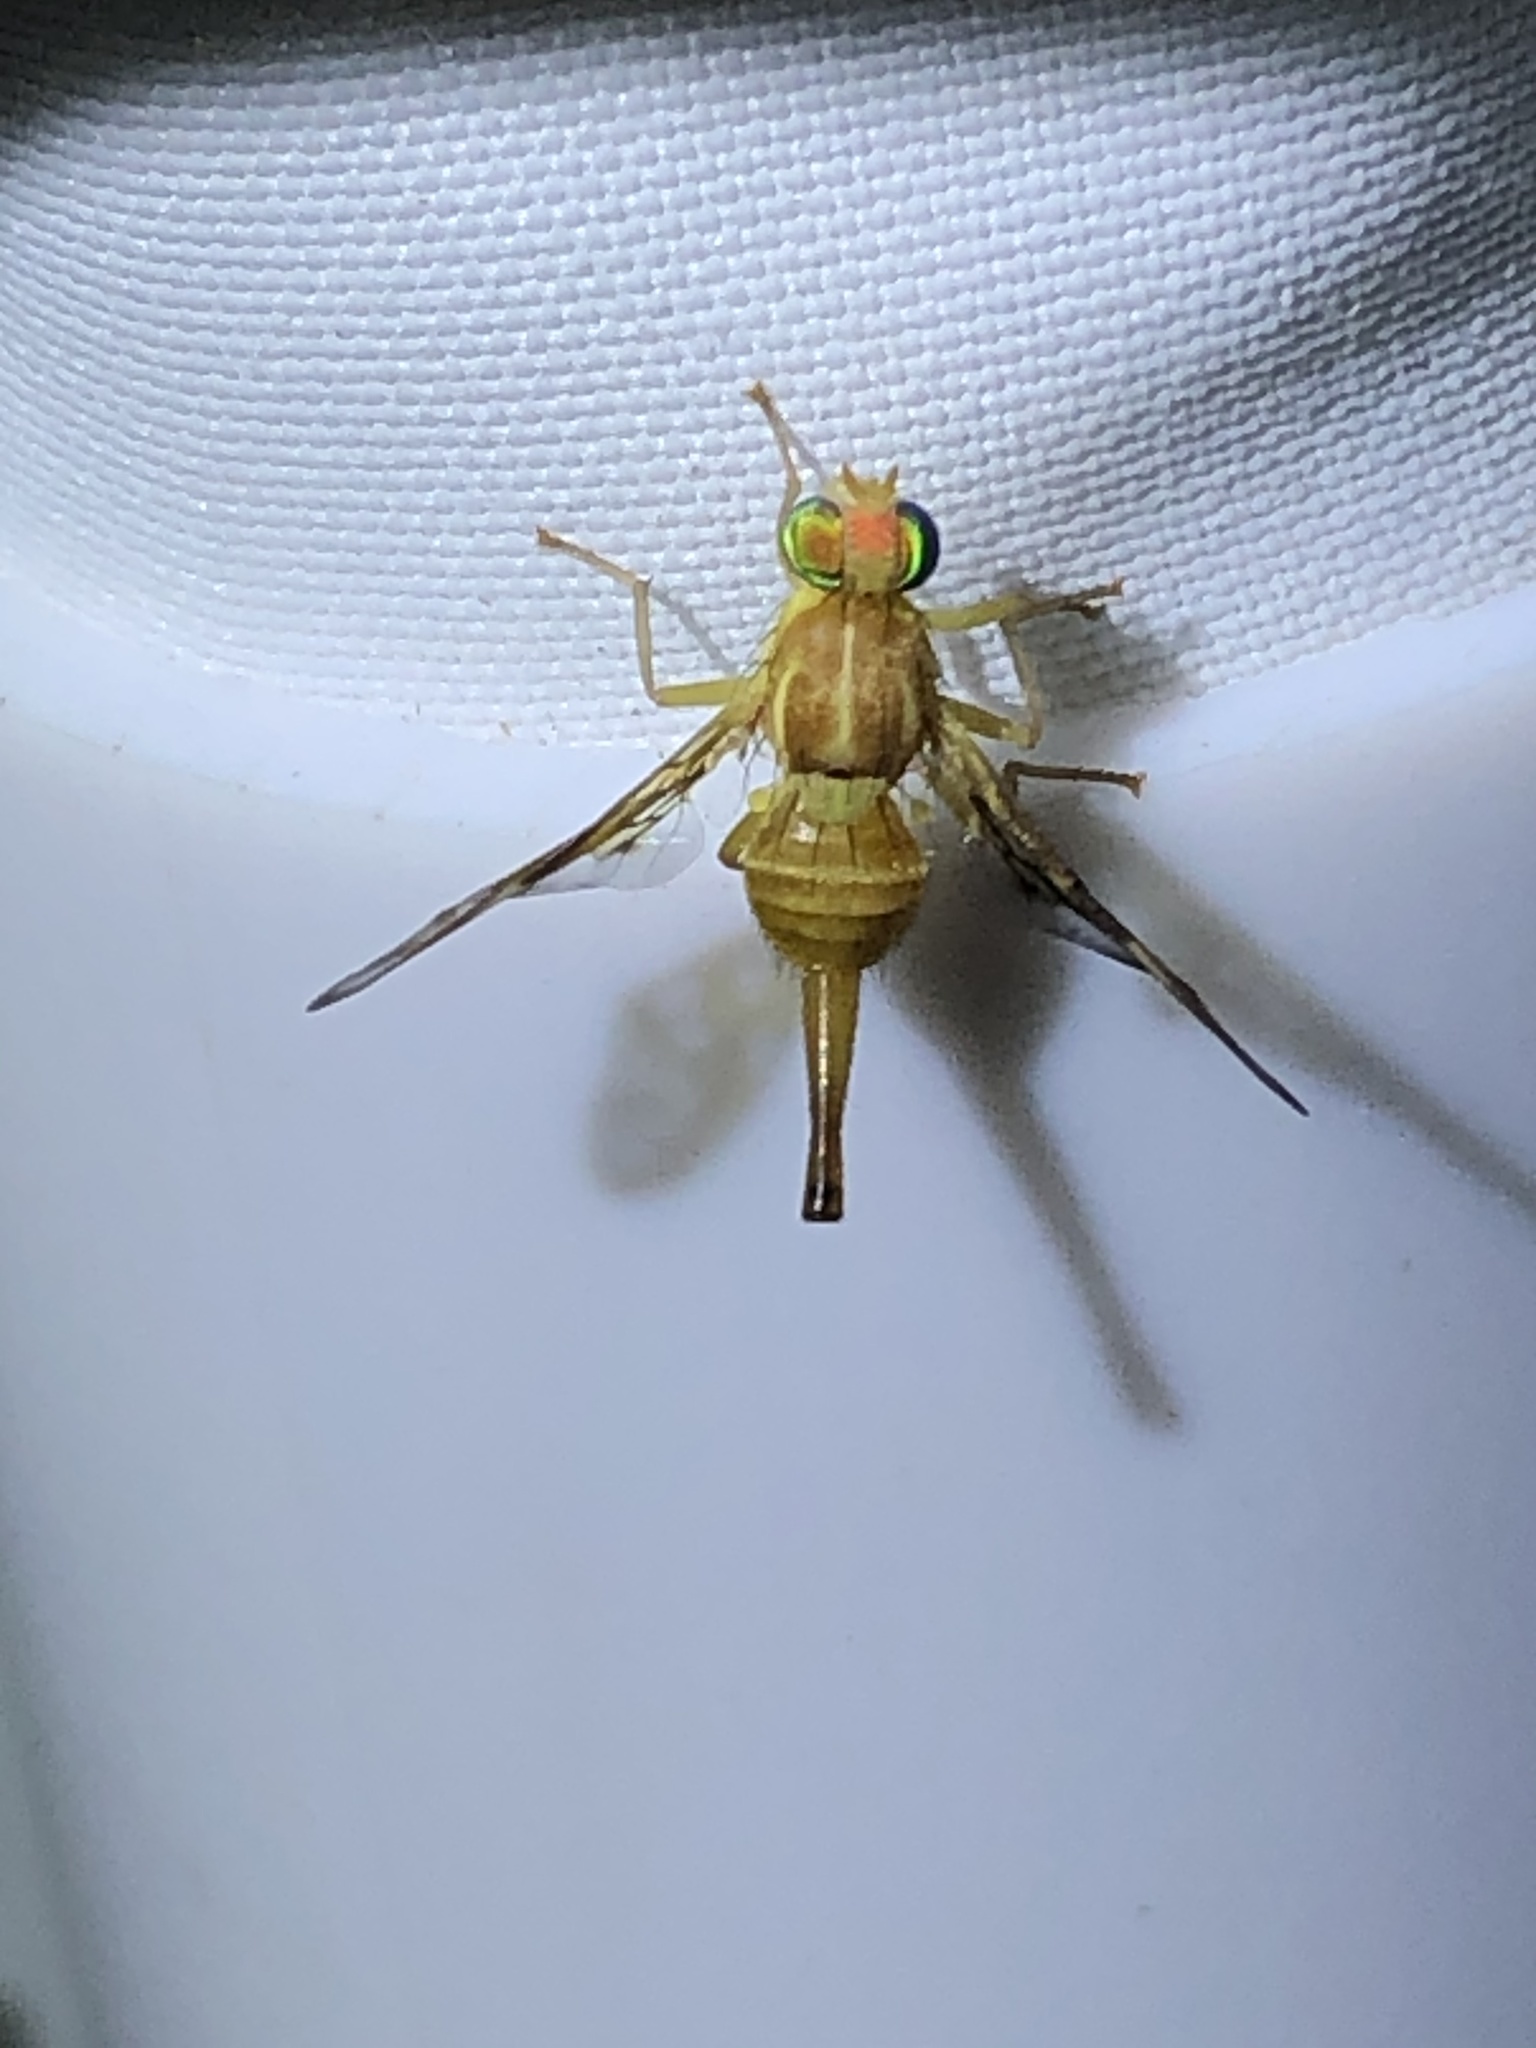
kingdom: Animalia
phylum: Arthropoda
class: Insecta
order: Diptera
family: Tephritidae
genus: Anastrepha
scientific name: Anastrepha ludens
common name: Mexican fruit fly
